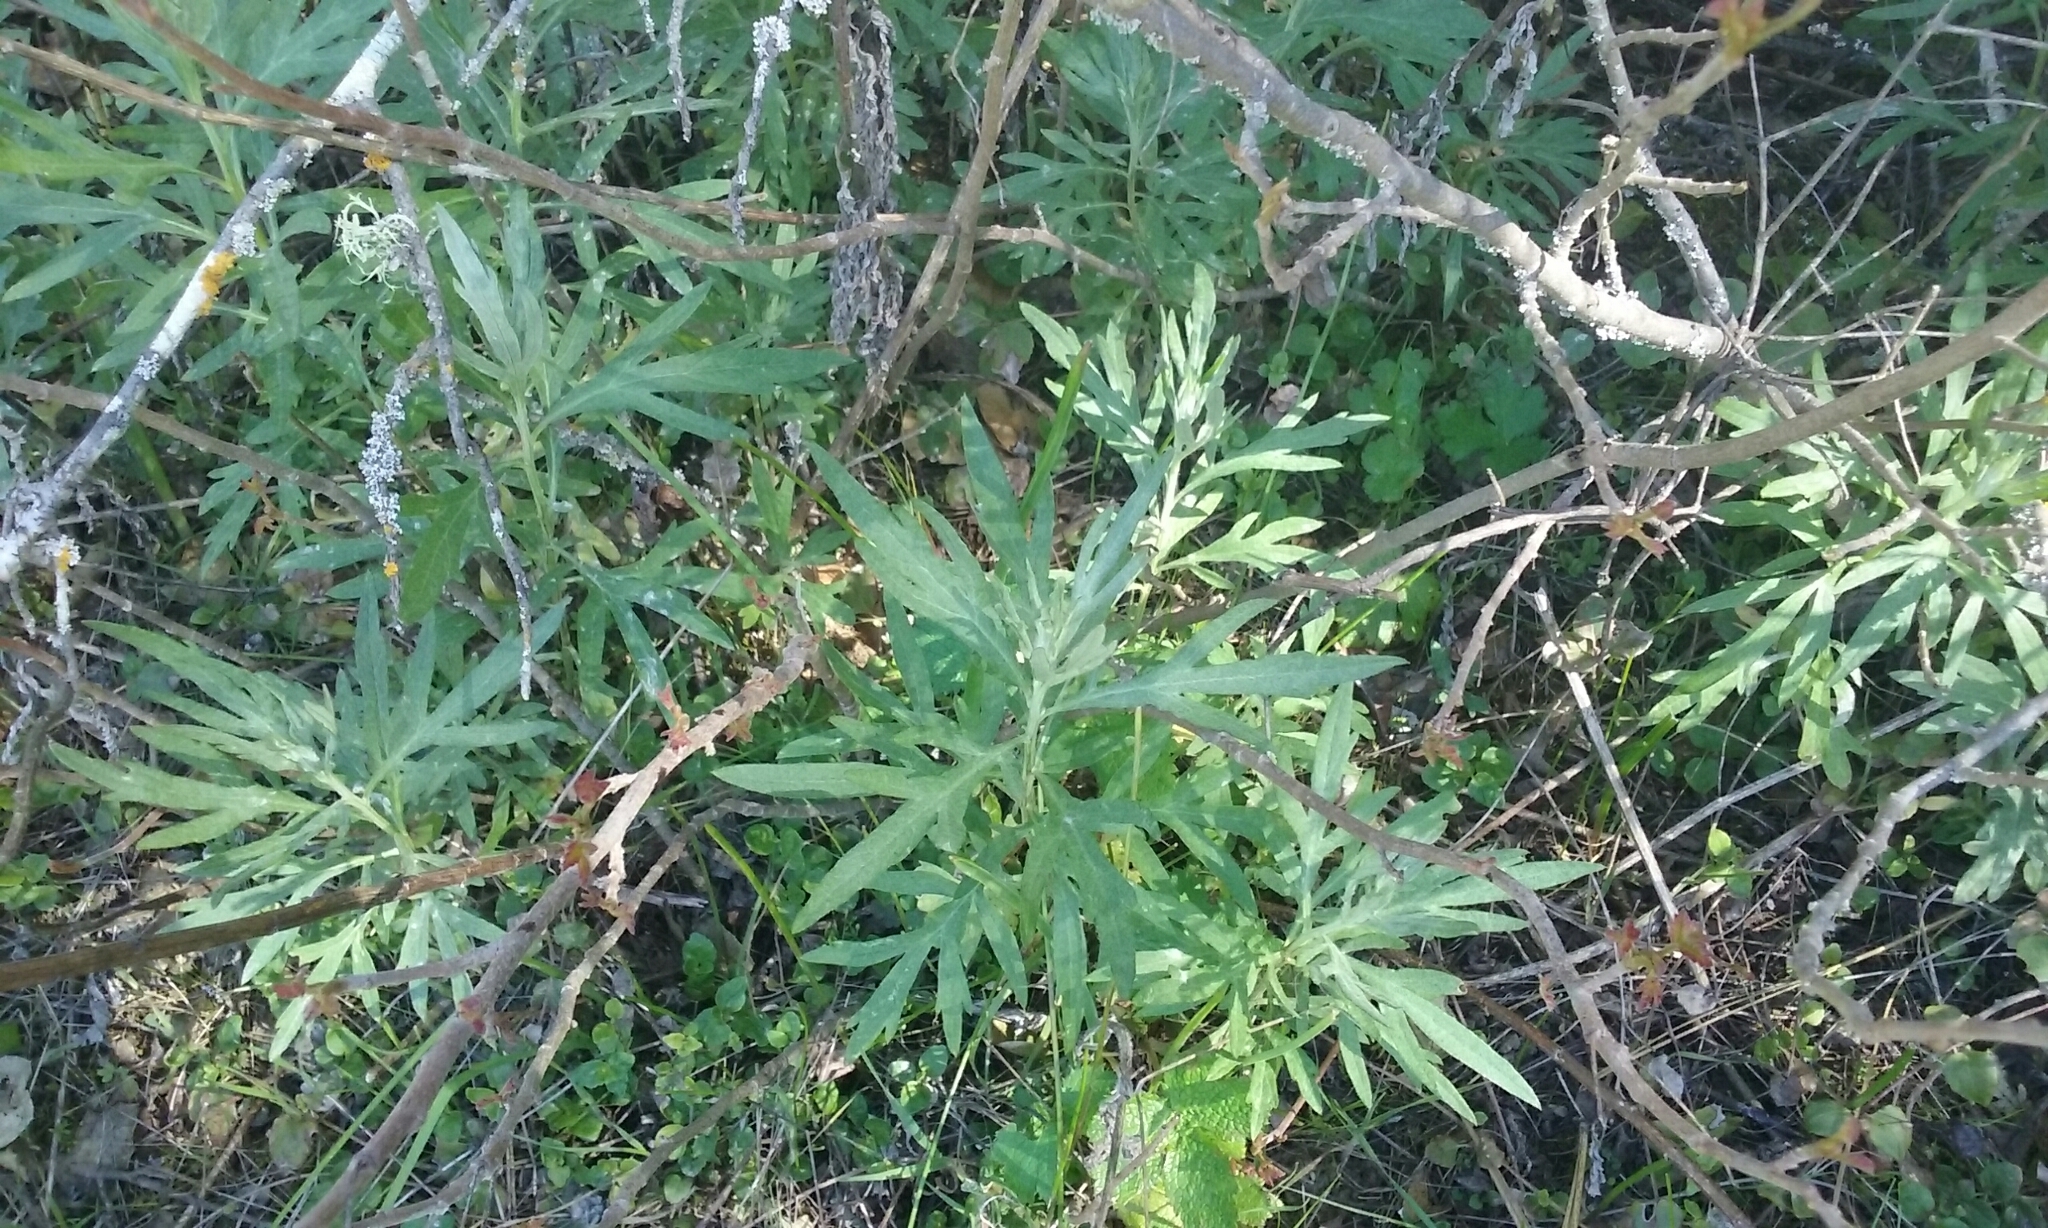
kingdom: Plantae
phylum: Tracheophyta
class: Magnoliopsida
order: Asterales
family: Asteraceae
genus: Artemisia
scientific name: Artemisia douglasiana
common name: Northwest mugwort
